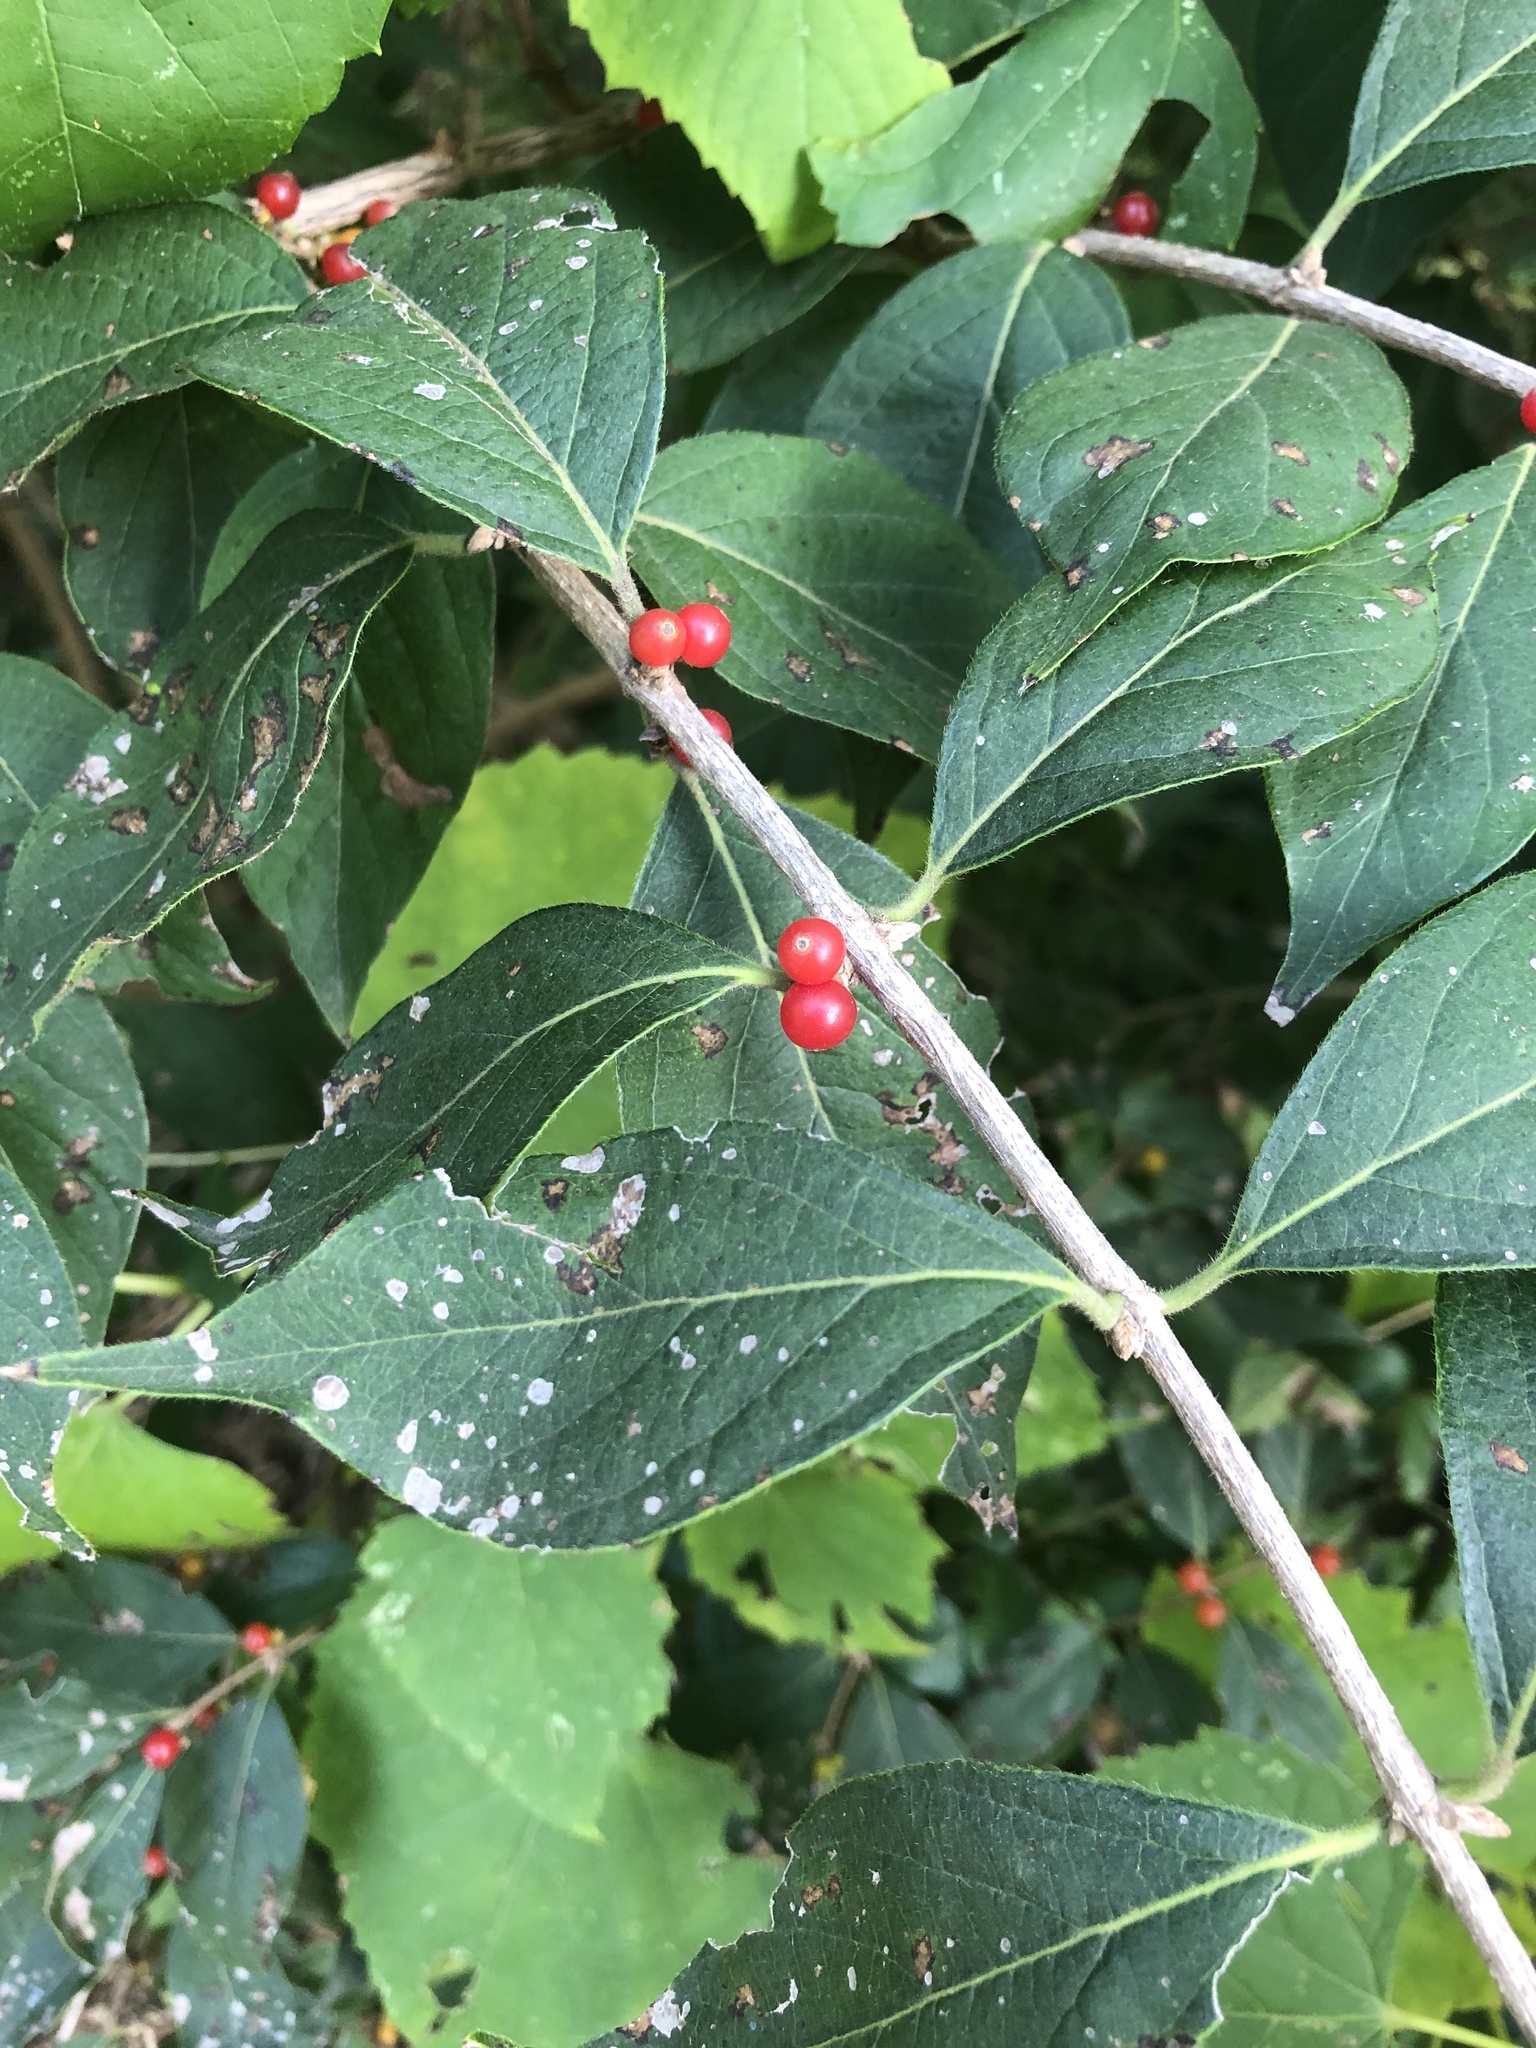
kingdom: Plantae
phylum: Tracheophyta
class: Magnoliopsida
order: Dipsacales
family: Caprifoliaceae
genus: Lonicera
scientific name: Lonicera maackii
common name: Amur honeysuckle
